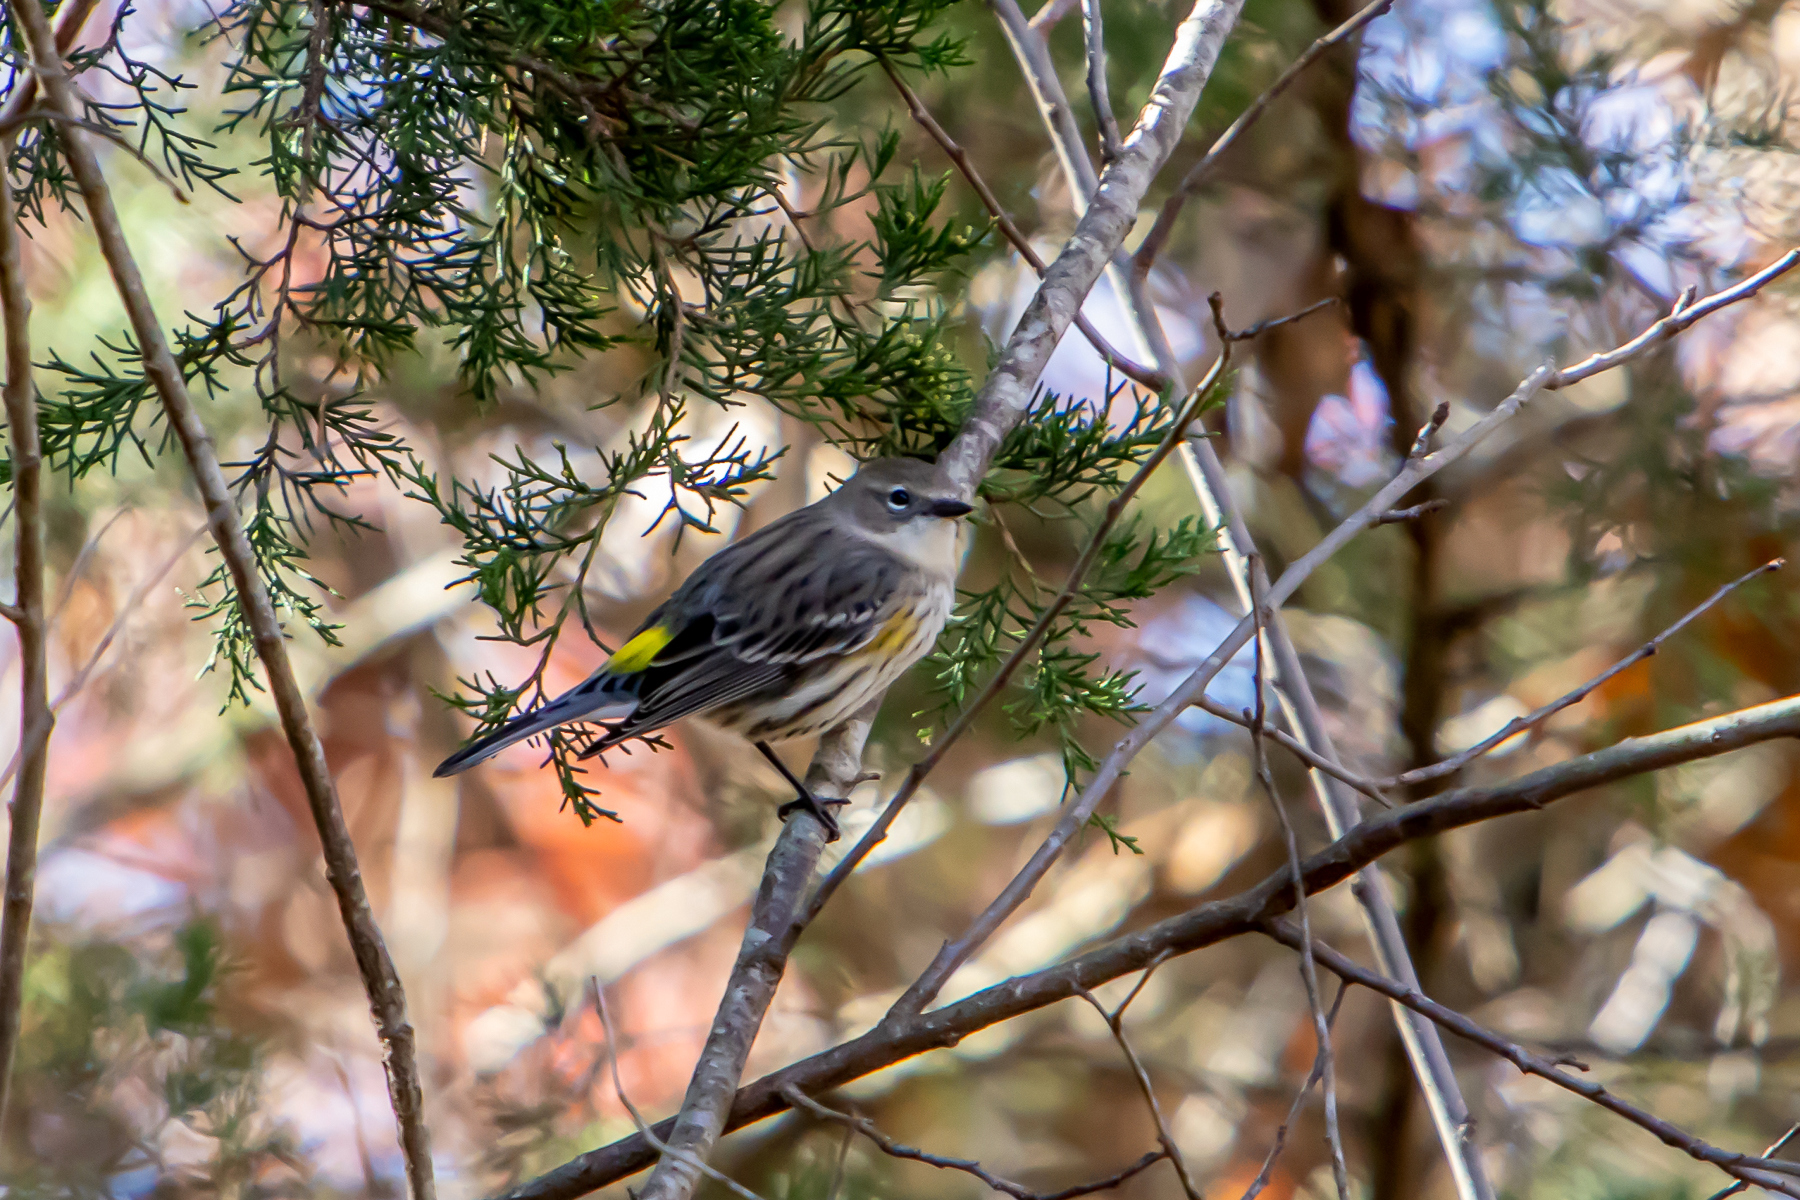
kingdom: Animalia
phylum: Chordata
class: Aves
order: Passeriformes
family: Parulidae
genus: Setophaga
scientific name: Setophaga coronata
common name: Myrtle warbler
